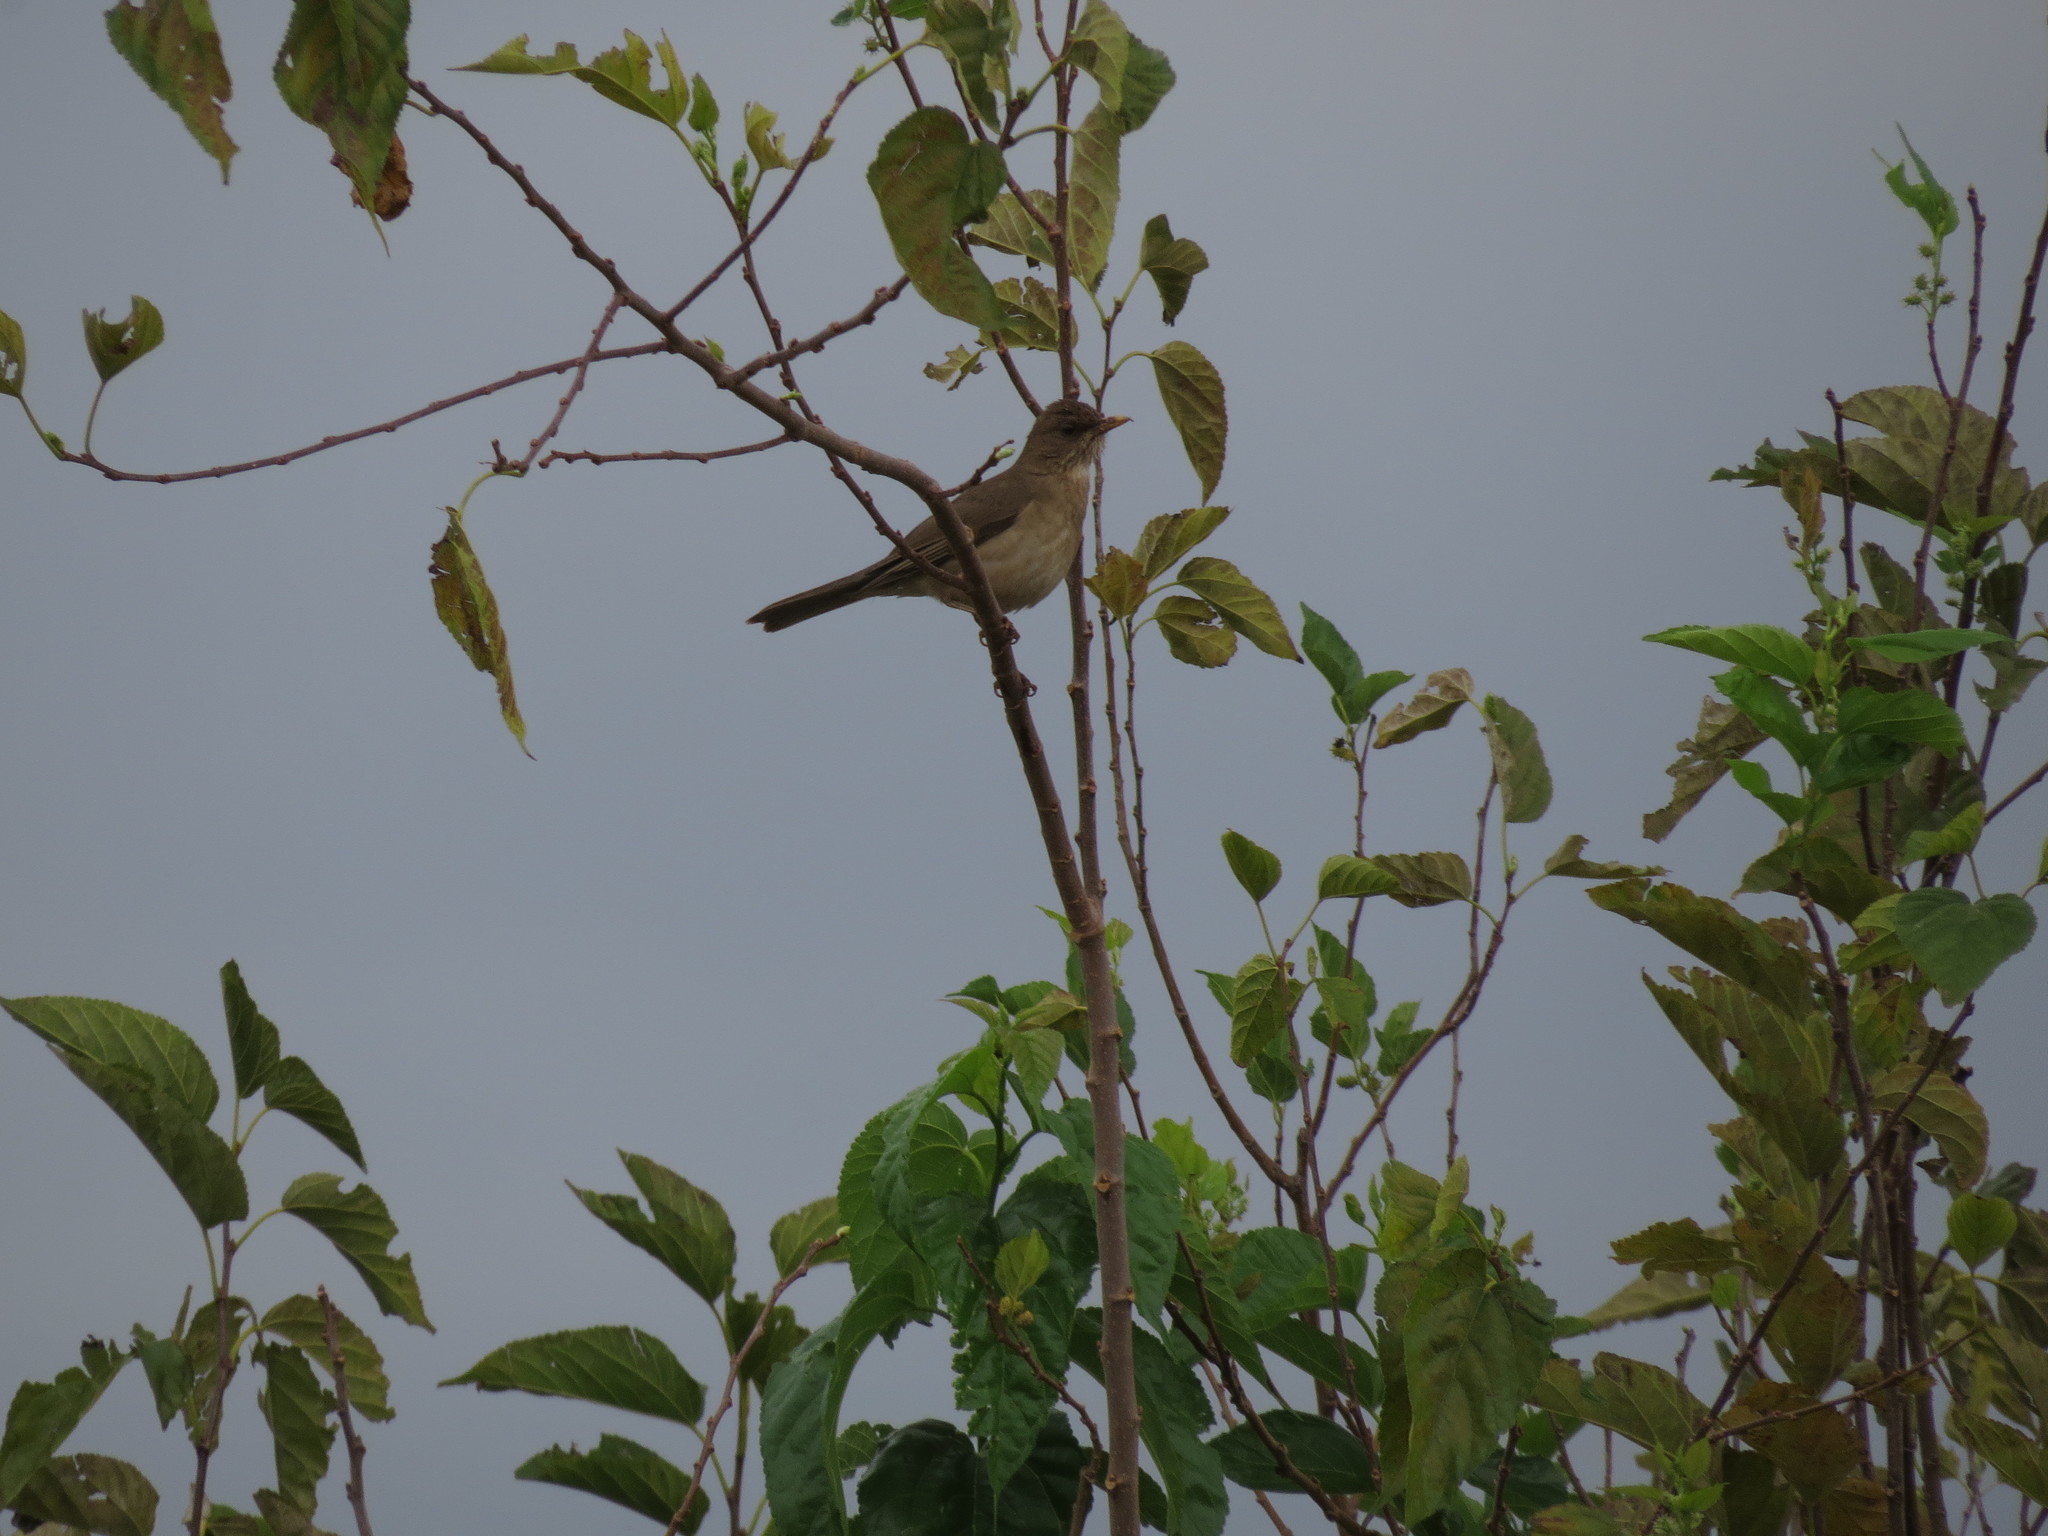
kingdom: Animalia
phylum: Chordata
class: Aves
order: Passeriformes
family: Turdidae
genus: Turdus
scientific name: Turdus amaurochalinus
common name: Creamy-bellied thrush
